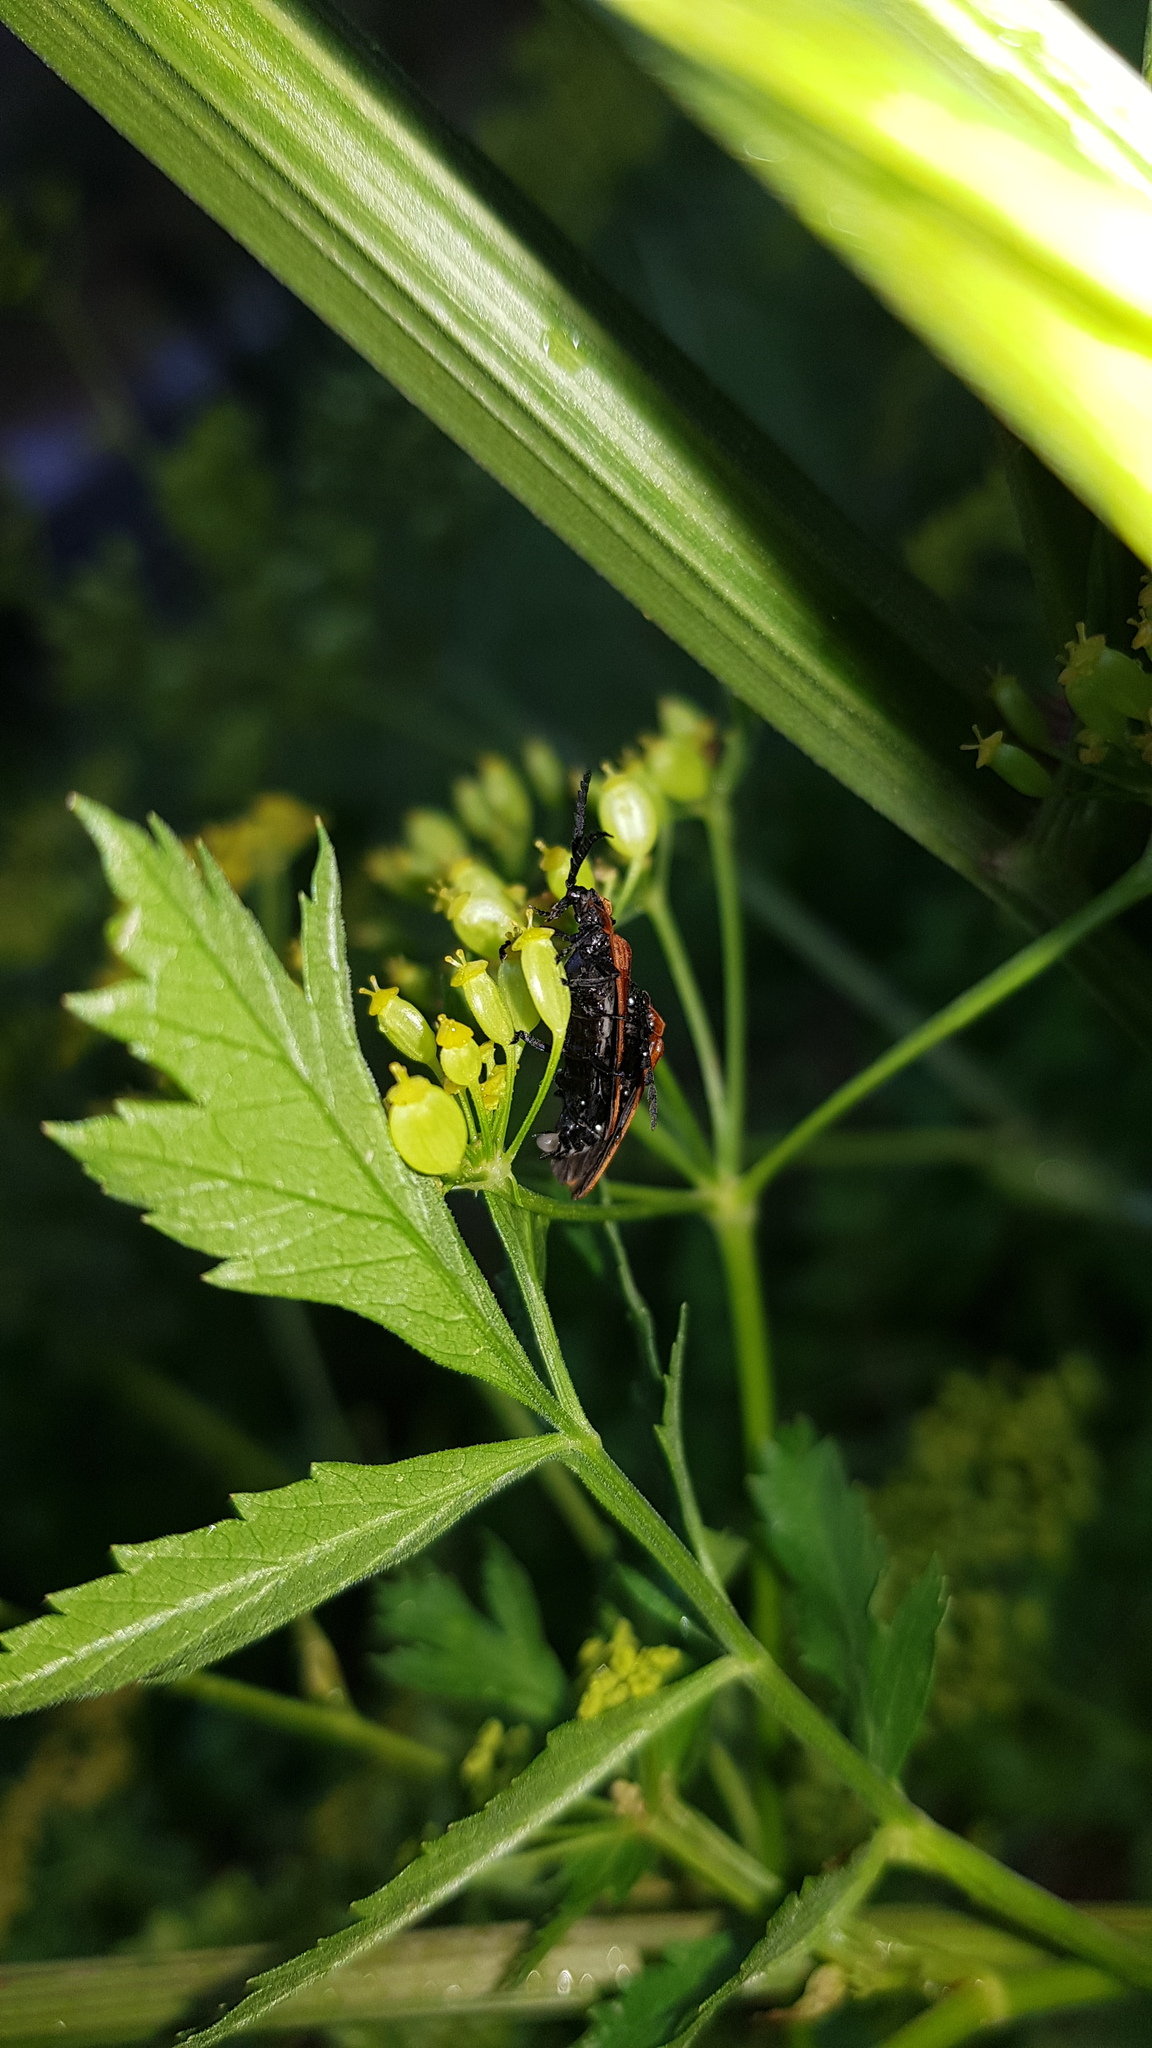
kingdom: Animalia
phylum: Arthropoda
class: Insecta
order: Coleoptera
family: Lycidae
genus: Metriorrhynchus
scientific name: Metriorrhynchus
